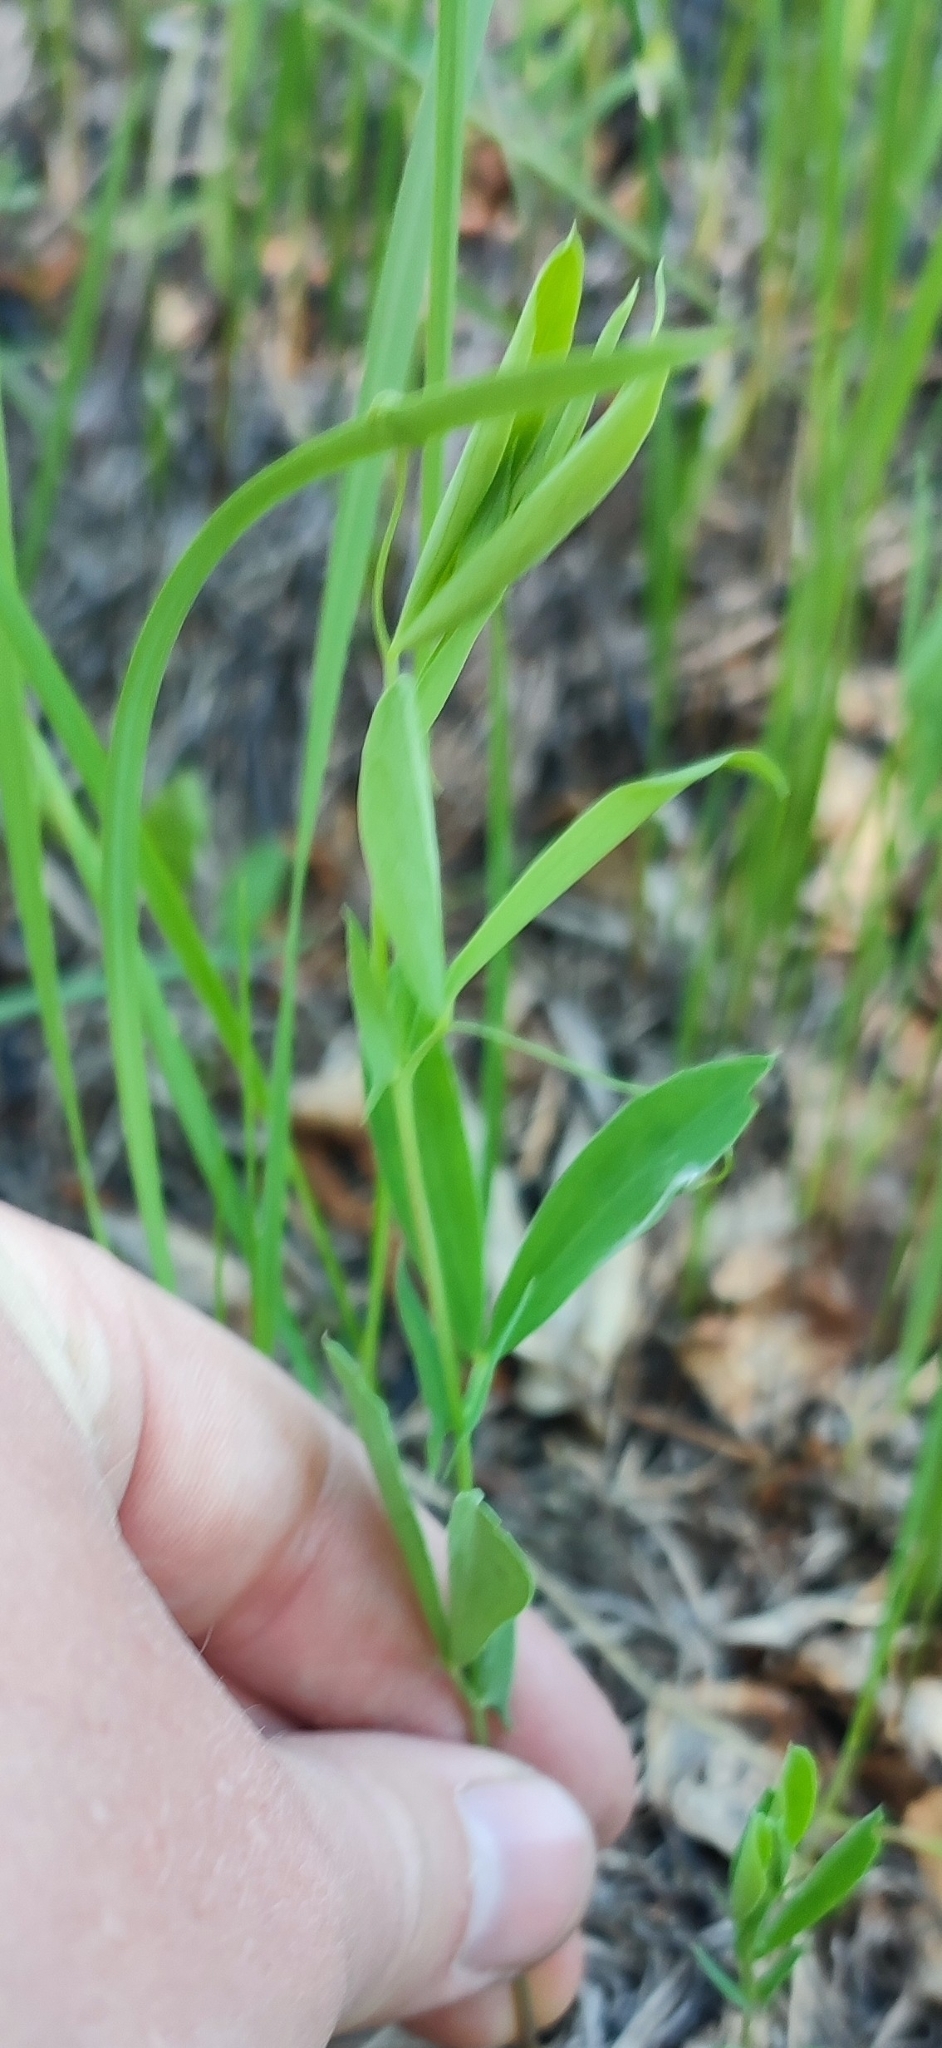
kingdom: Plantae
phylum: Tracheophyta
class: Magnoliopsida
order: Fabales
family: Fabaceae
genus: Lathyrus
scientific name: Lathyrus tuberosus
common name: Tuberous pea
